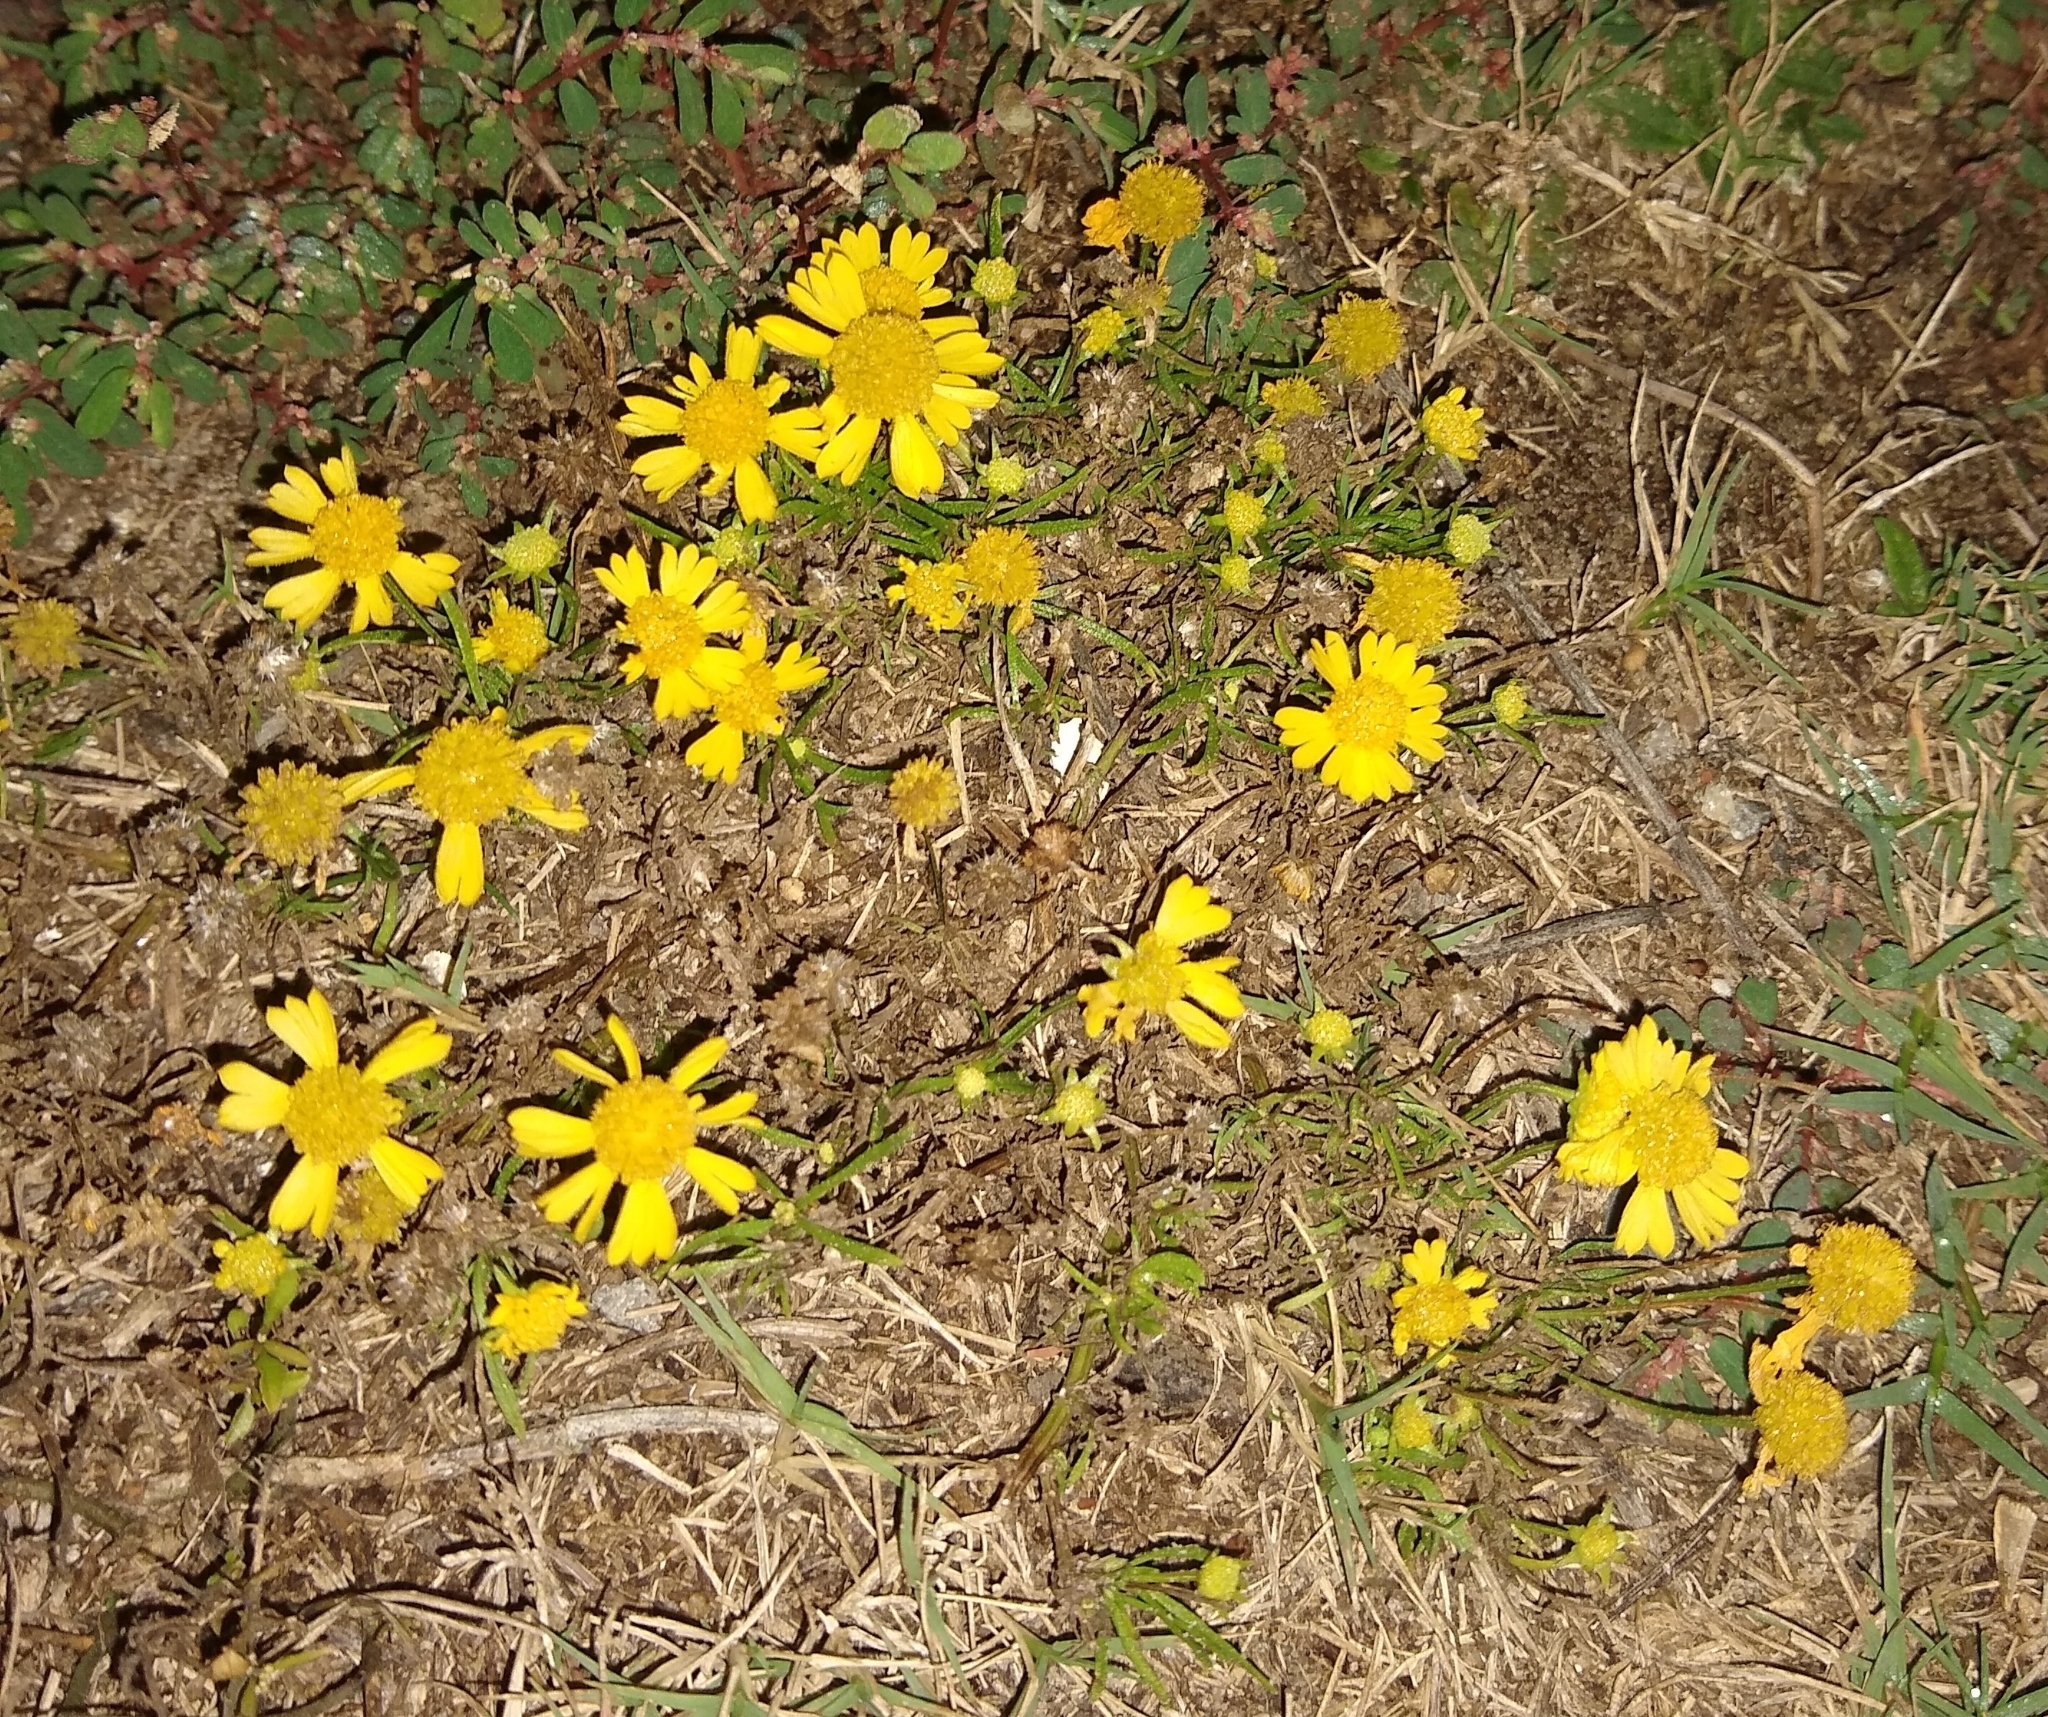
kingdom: Plantae
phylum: Tracheophyta
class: Magnoliopsida
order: Asterales
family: Asteraceae
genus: Helenium
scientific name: Helenium amarum
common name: Bitter sneezeweed
